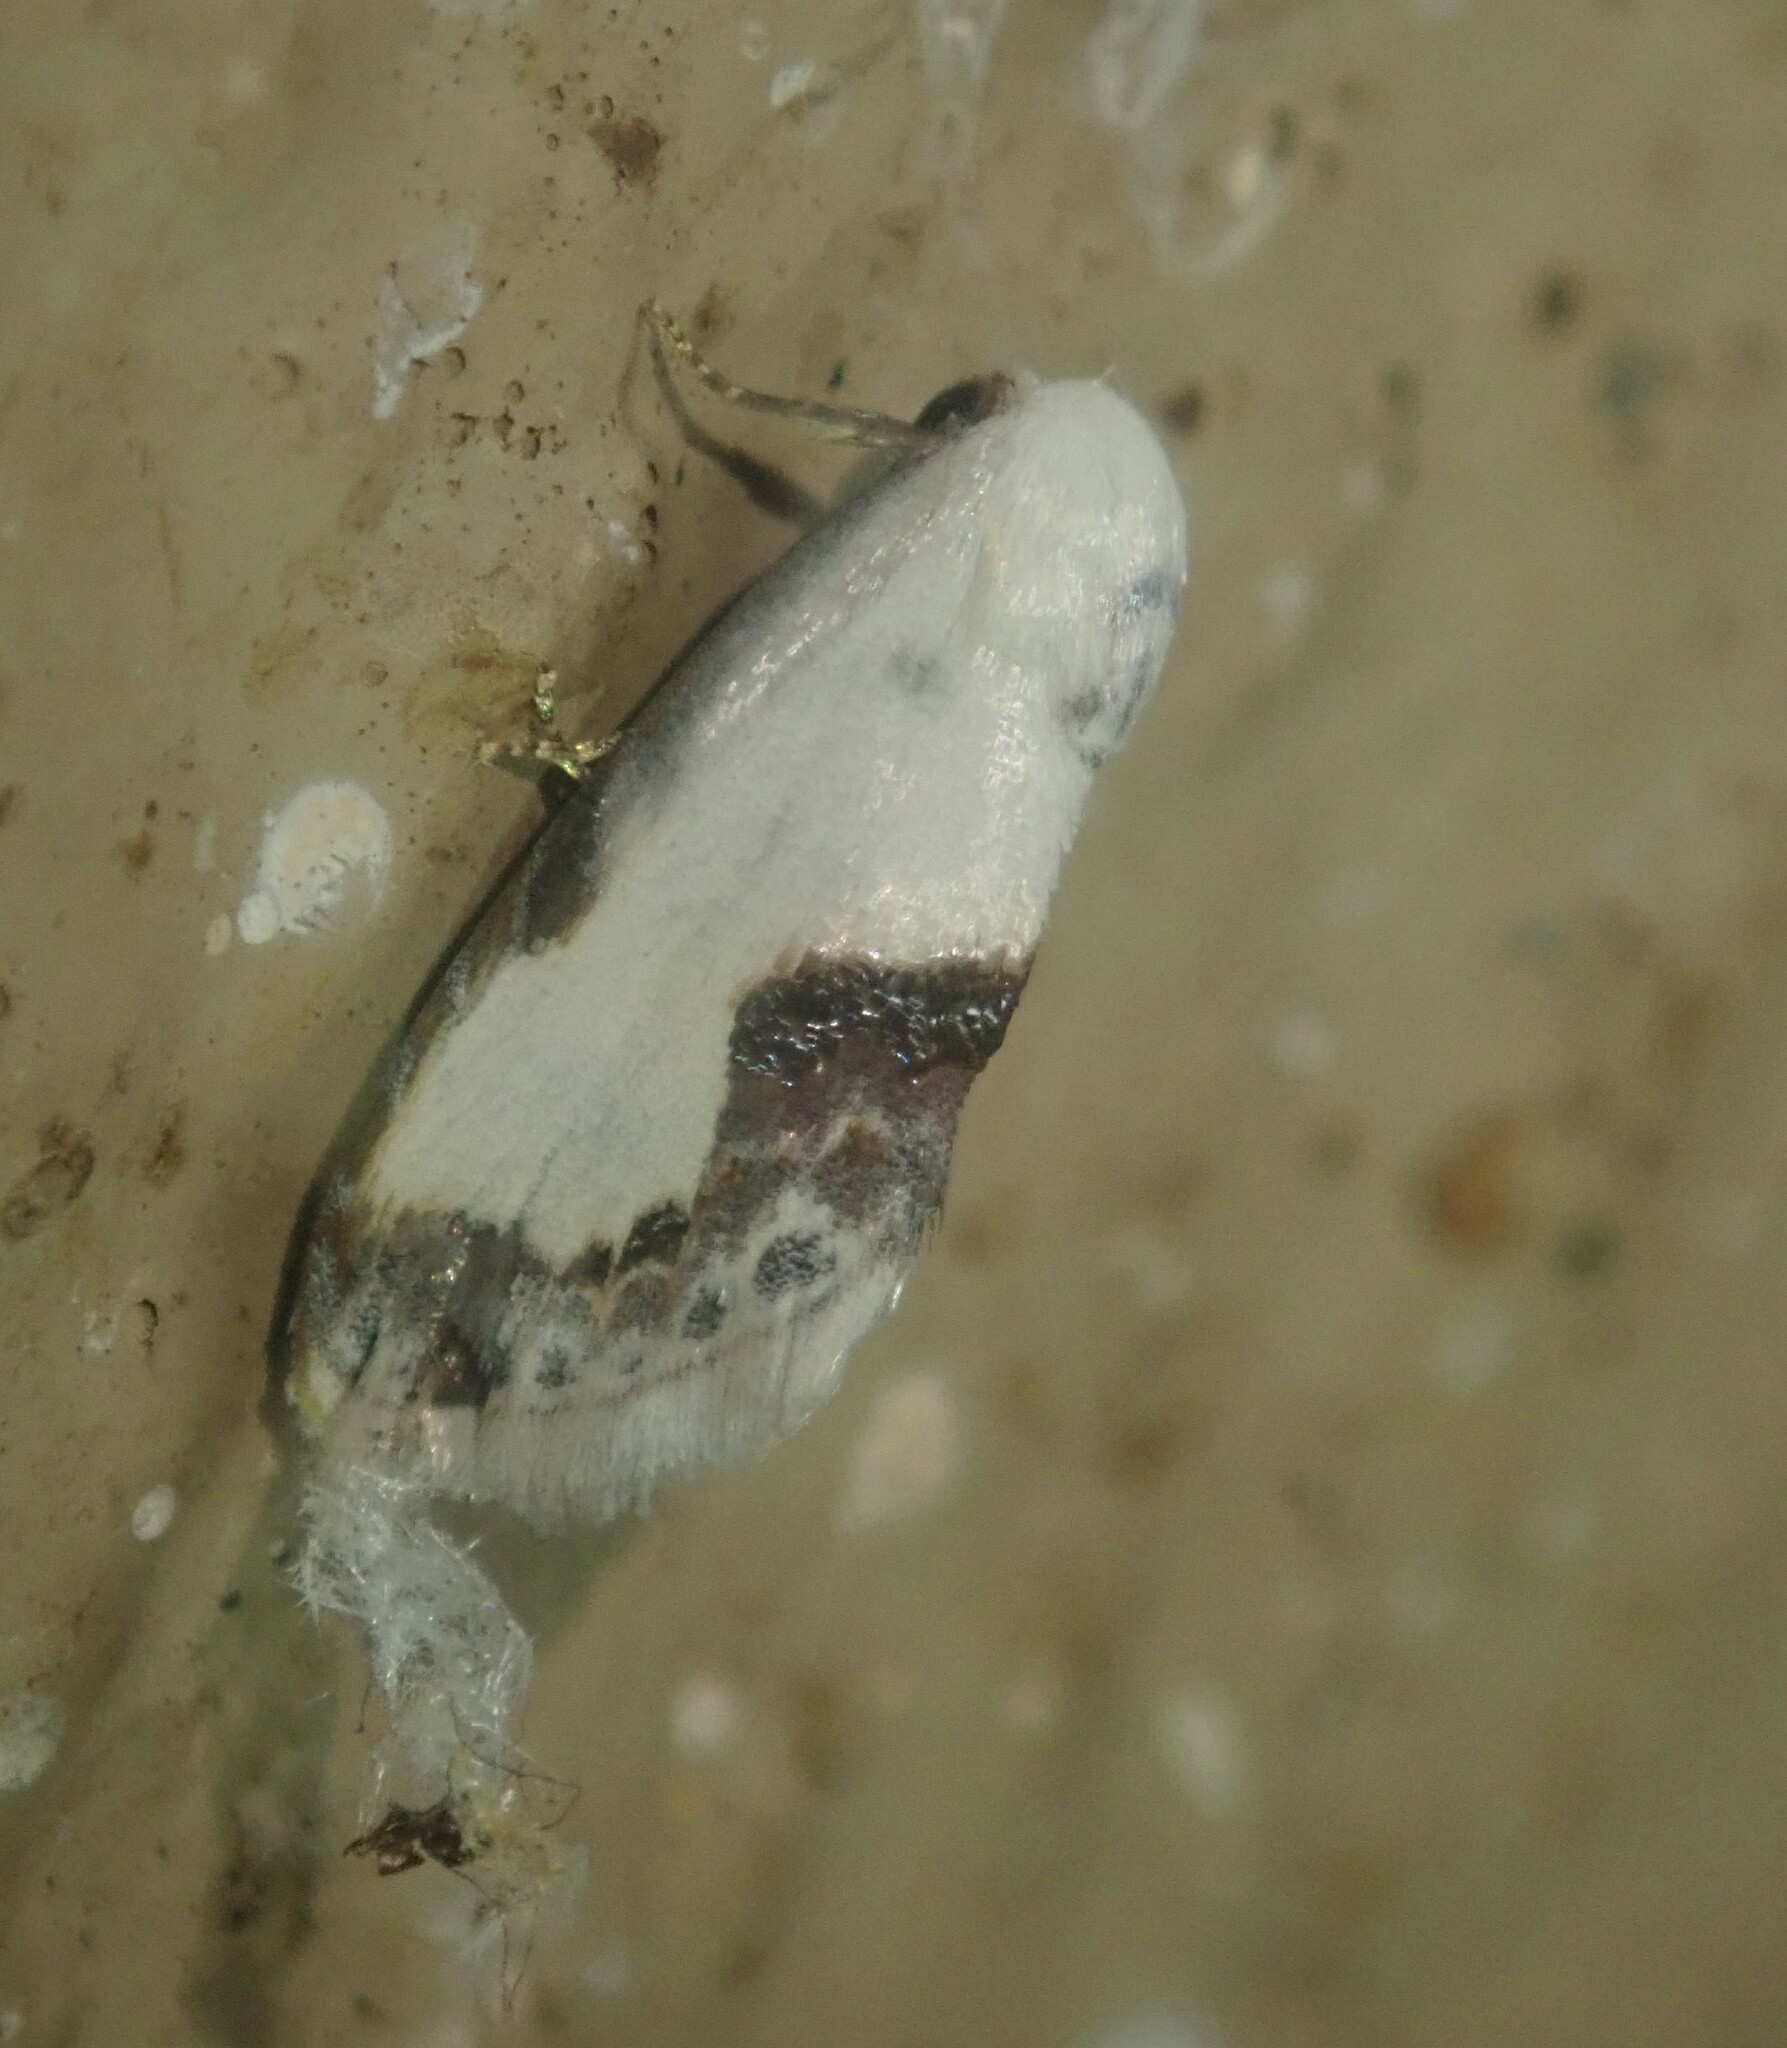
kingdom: Animalia
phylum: Arthropoda
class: Insecta
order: Lepidoptera
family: Nolidae
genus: Negeta
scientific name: Negeta luminosa
